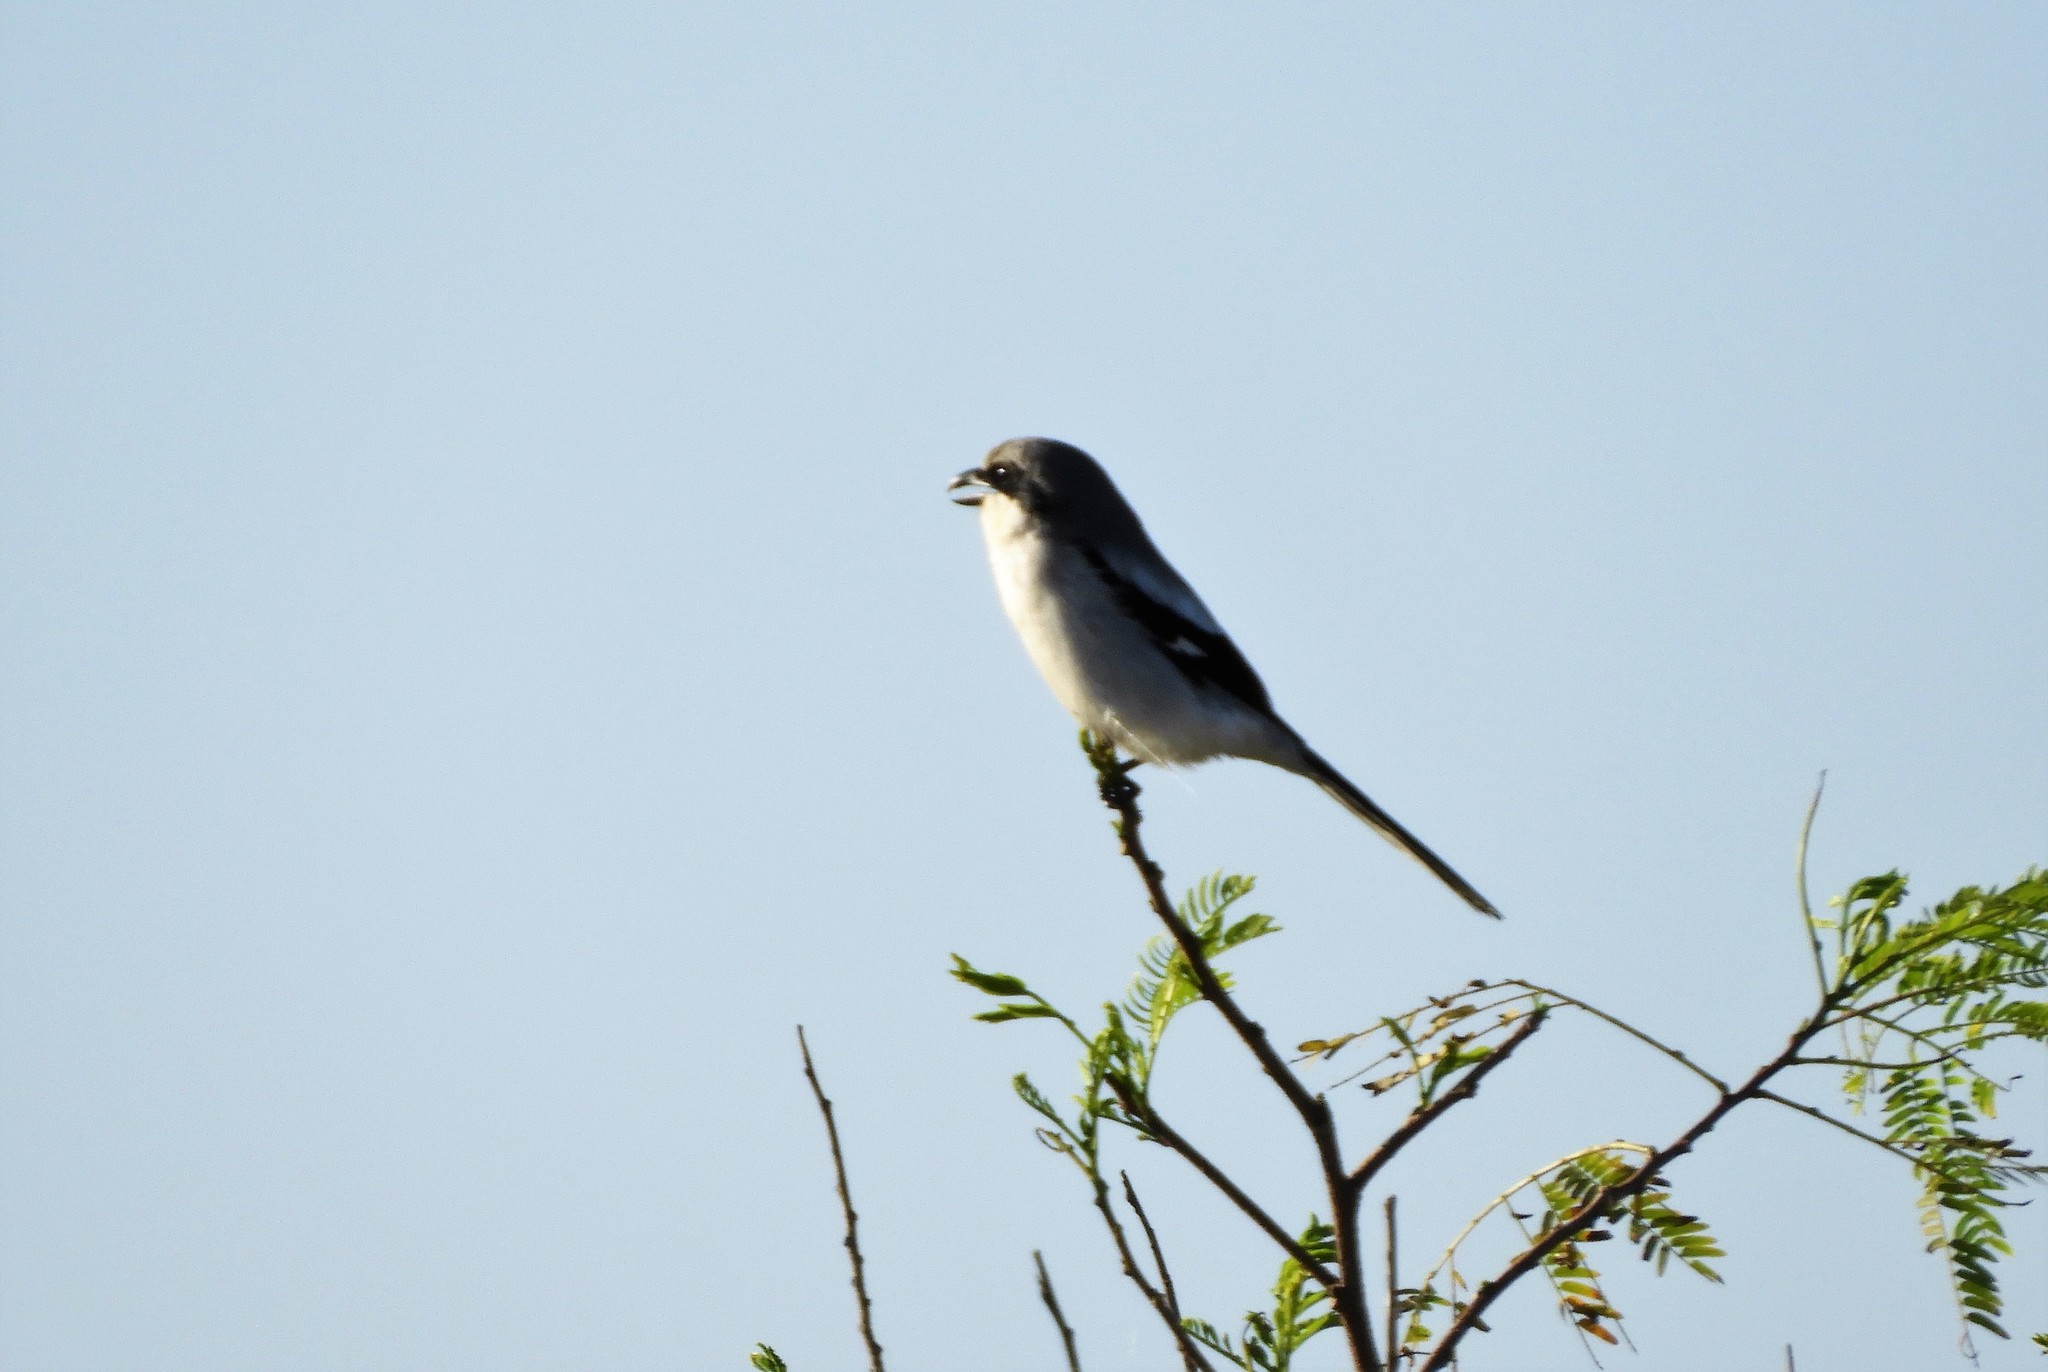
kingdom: Animalia
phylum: Chordata
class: Aves
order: Passeriformes
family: Laniidae
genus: Lanius
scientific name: Lanius ludovicianus
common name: Loggerhead shrike
